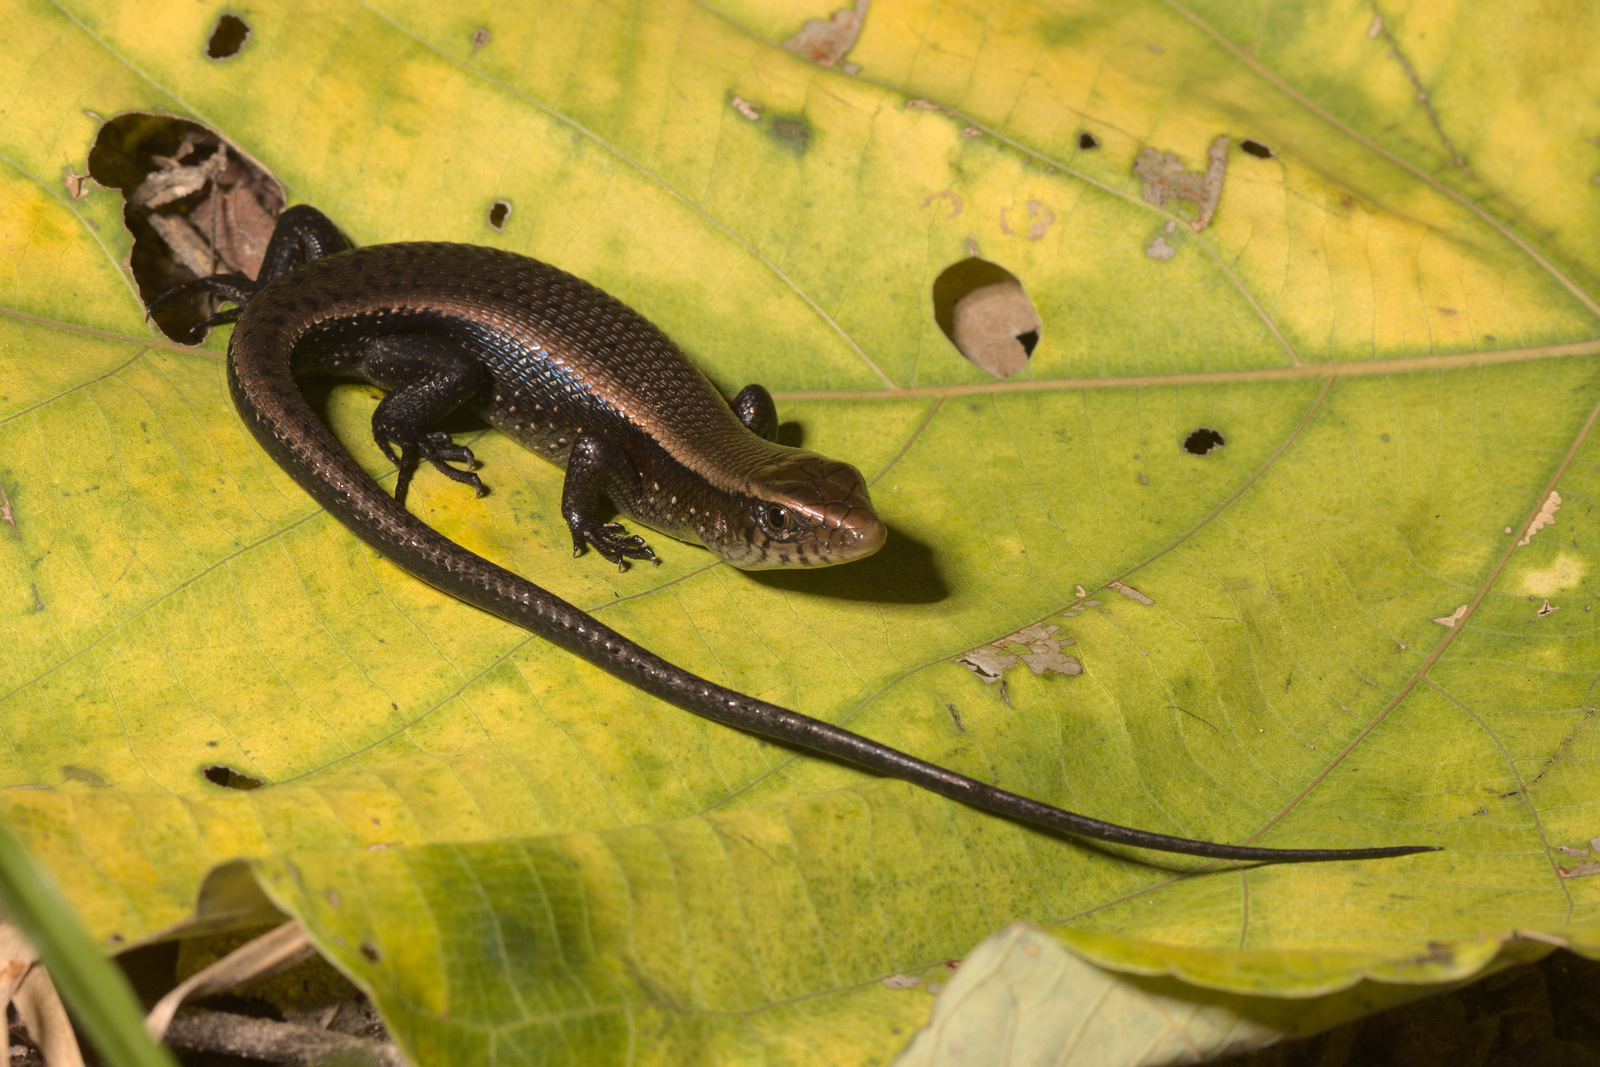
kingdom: Animalia
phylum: Chordata
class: Squamata
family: Scincidae
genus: Eutropis
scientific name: Eutropis multifasciata
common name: Common mabuya
